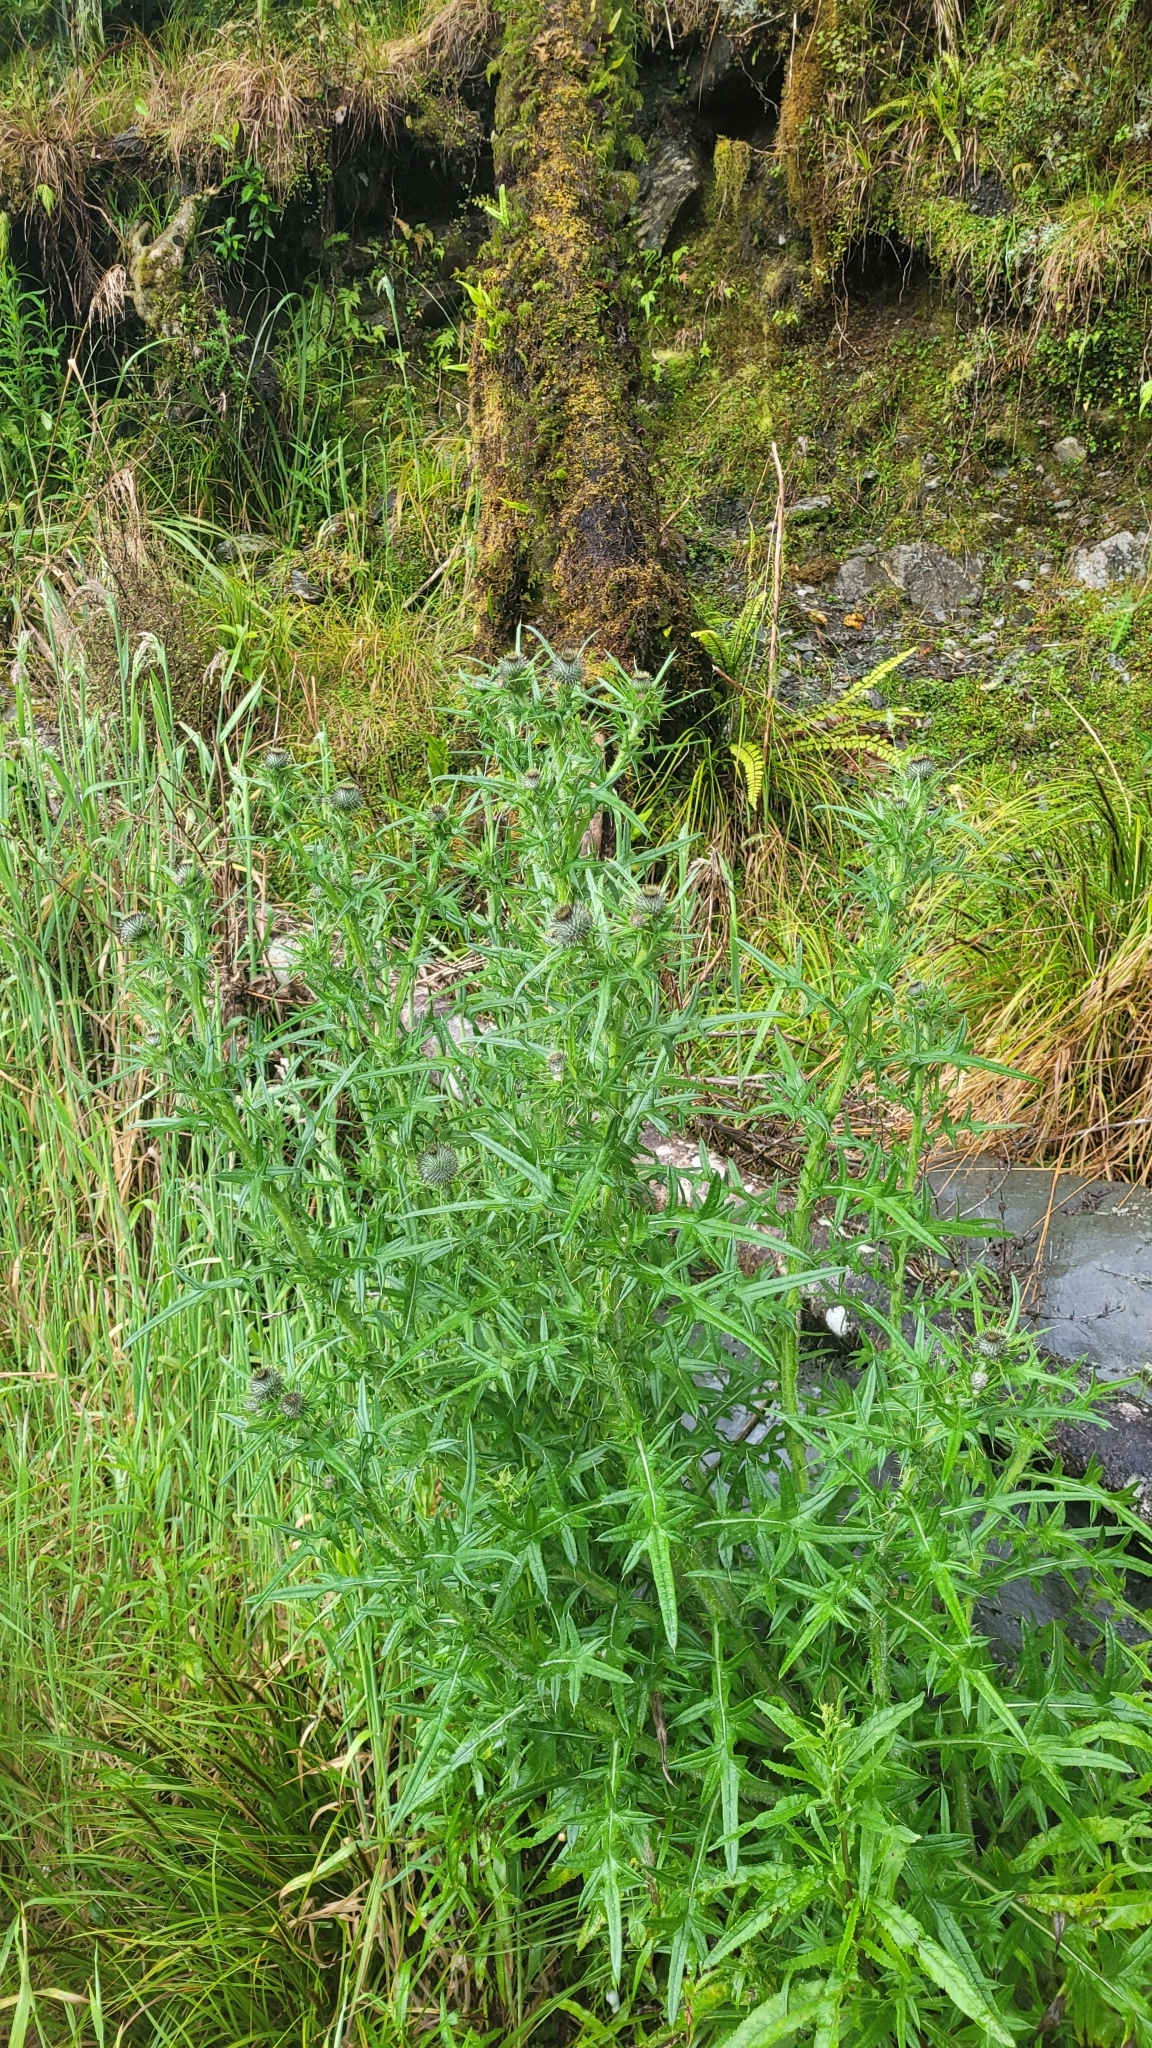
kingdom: Plantae
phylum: Tracheophyta
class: Magnoliopsida
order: Asterales
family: Asteraceae
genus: Cirsium
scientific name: Cirsium vulgare
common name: Bull thistle
